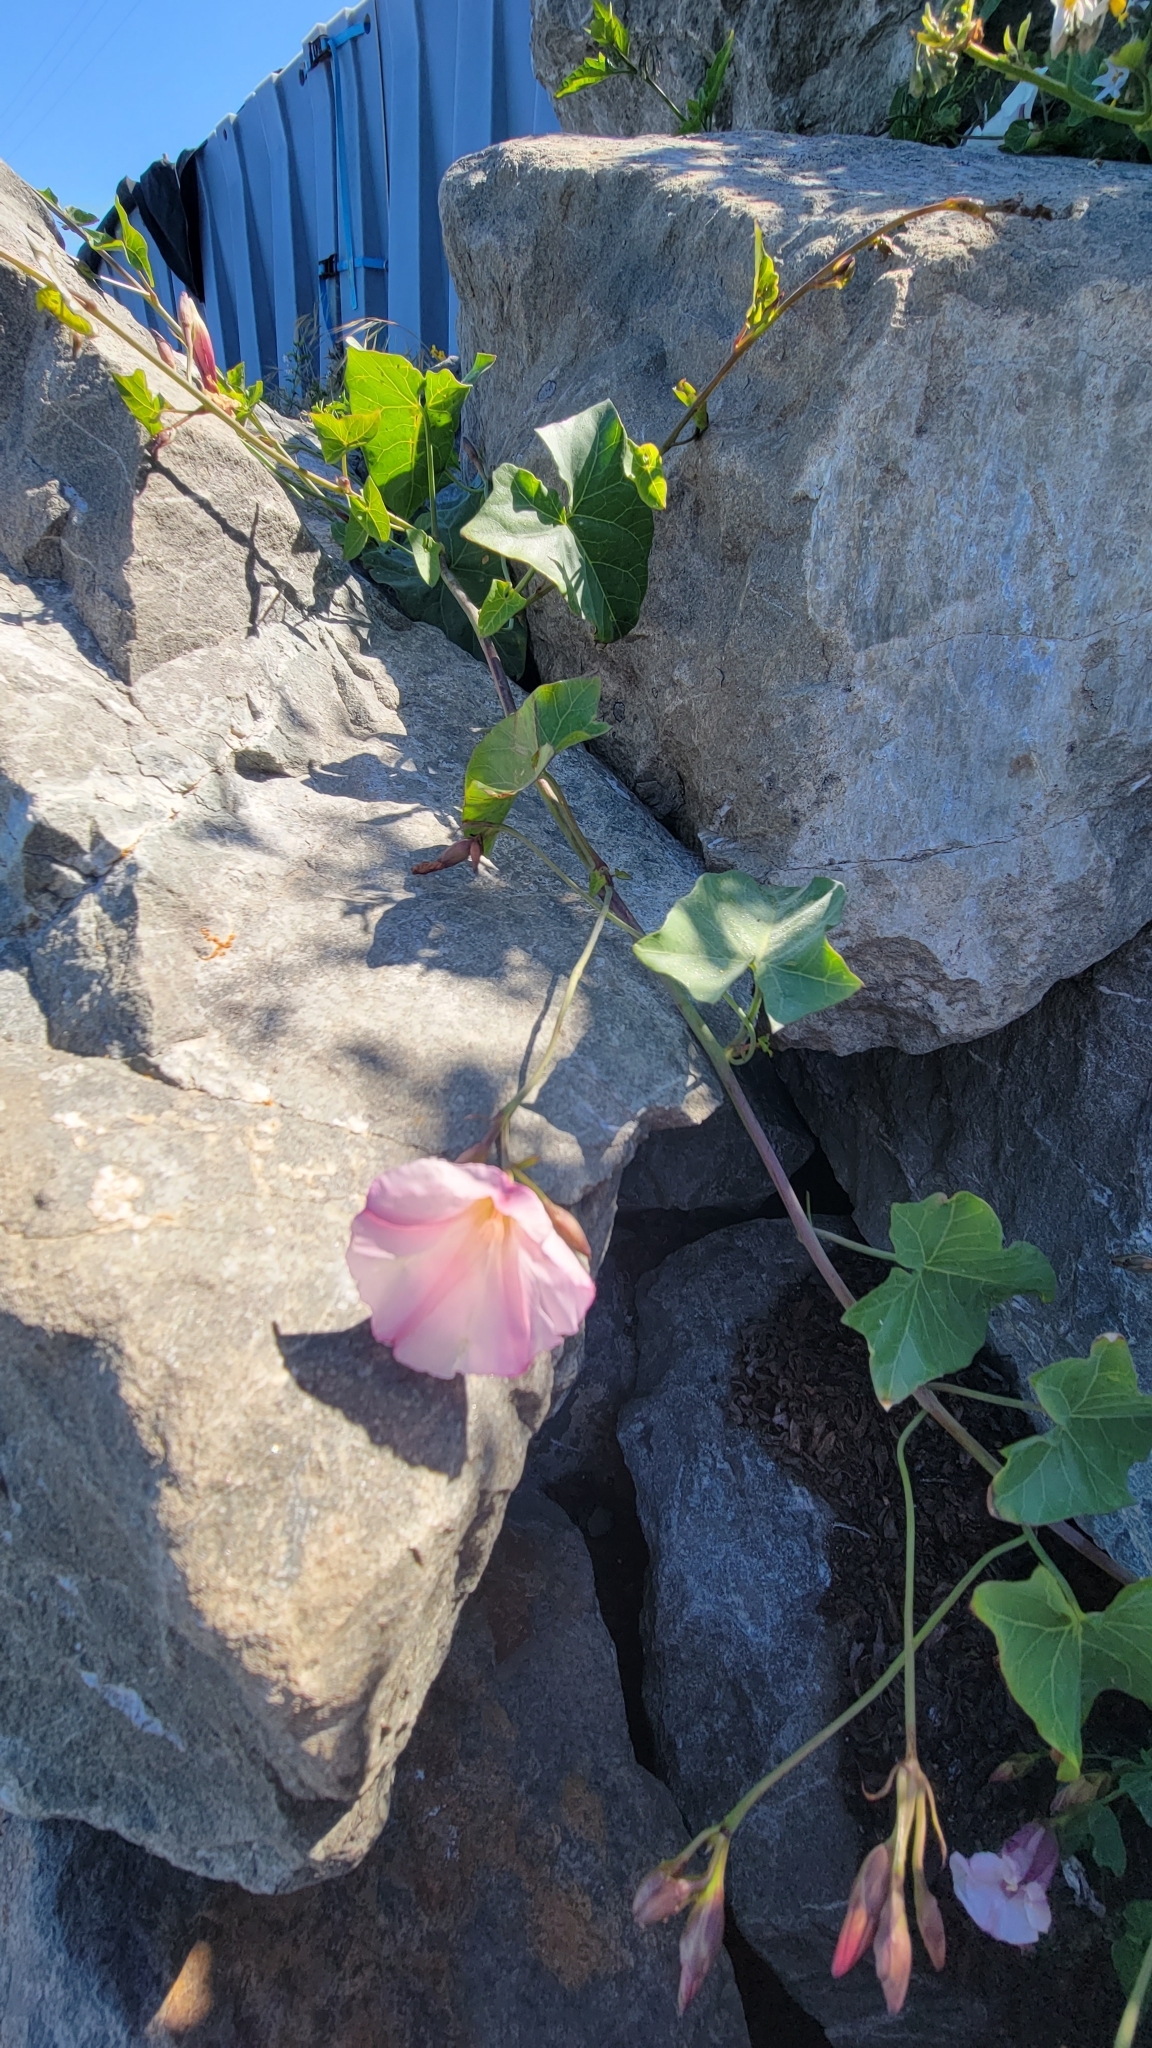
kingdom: Plantae
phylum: Tracheophyta
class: Magnoliopsida
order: Solanales
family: Convolvulaceae
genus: Calystegia
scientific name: Calystegia purpurata
